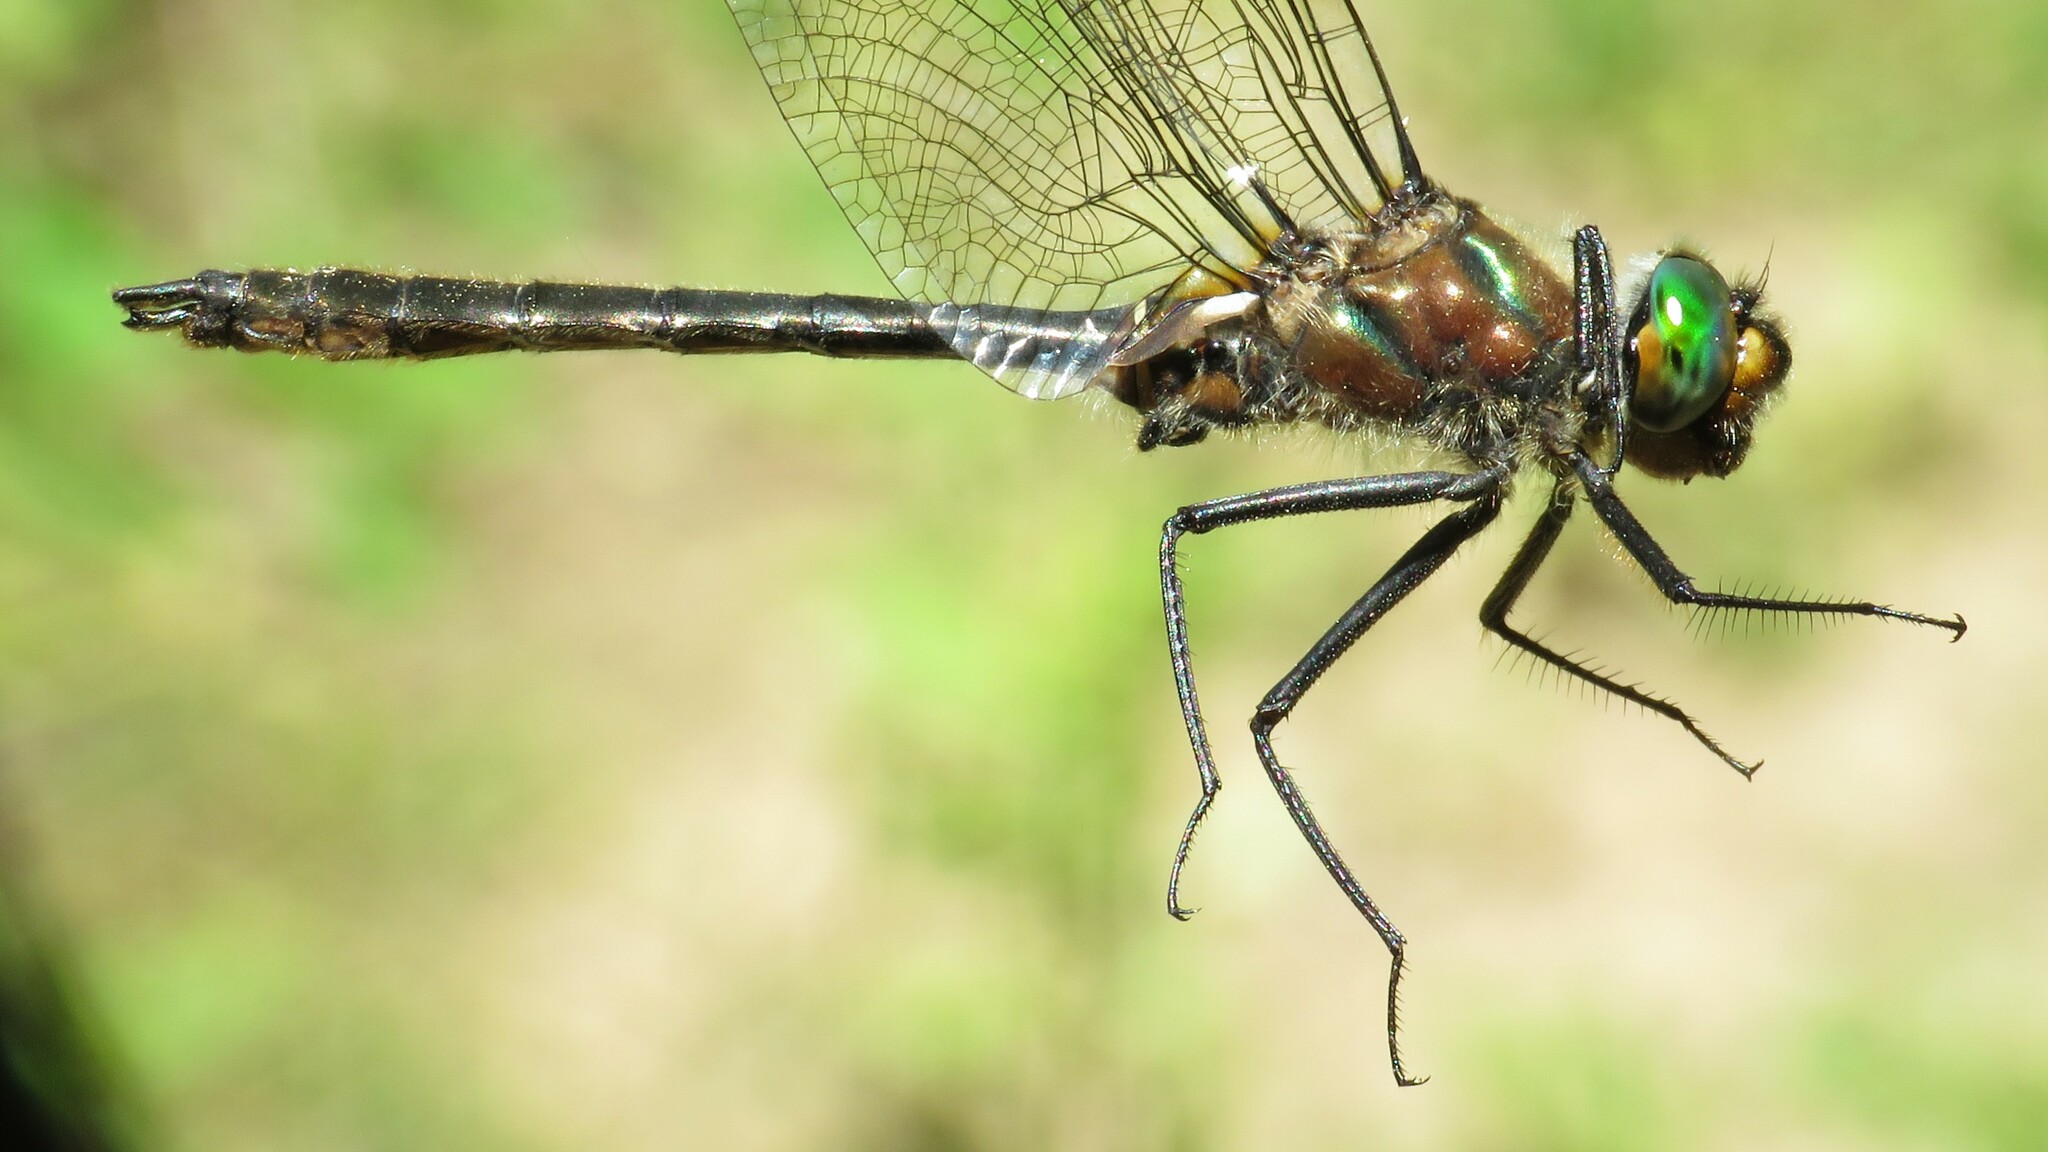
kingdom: Animalia
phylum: Arthropoda
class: Insecta
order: Odonata
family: Corduliidae
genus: Cordulia
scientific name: Cordulia shurtleffii
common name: American emerald
